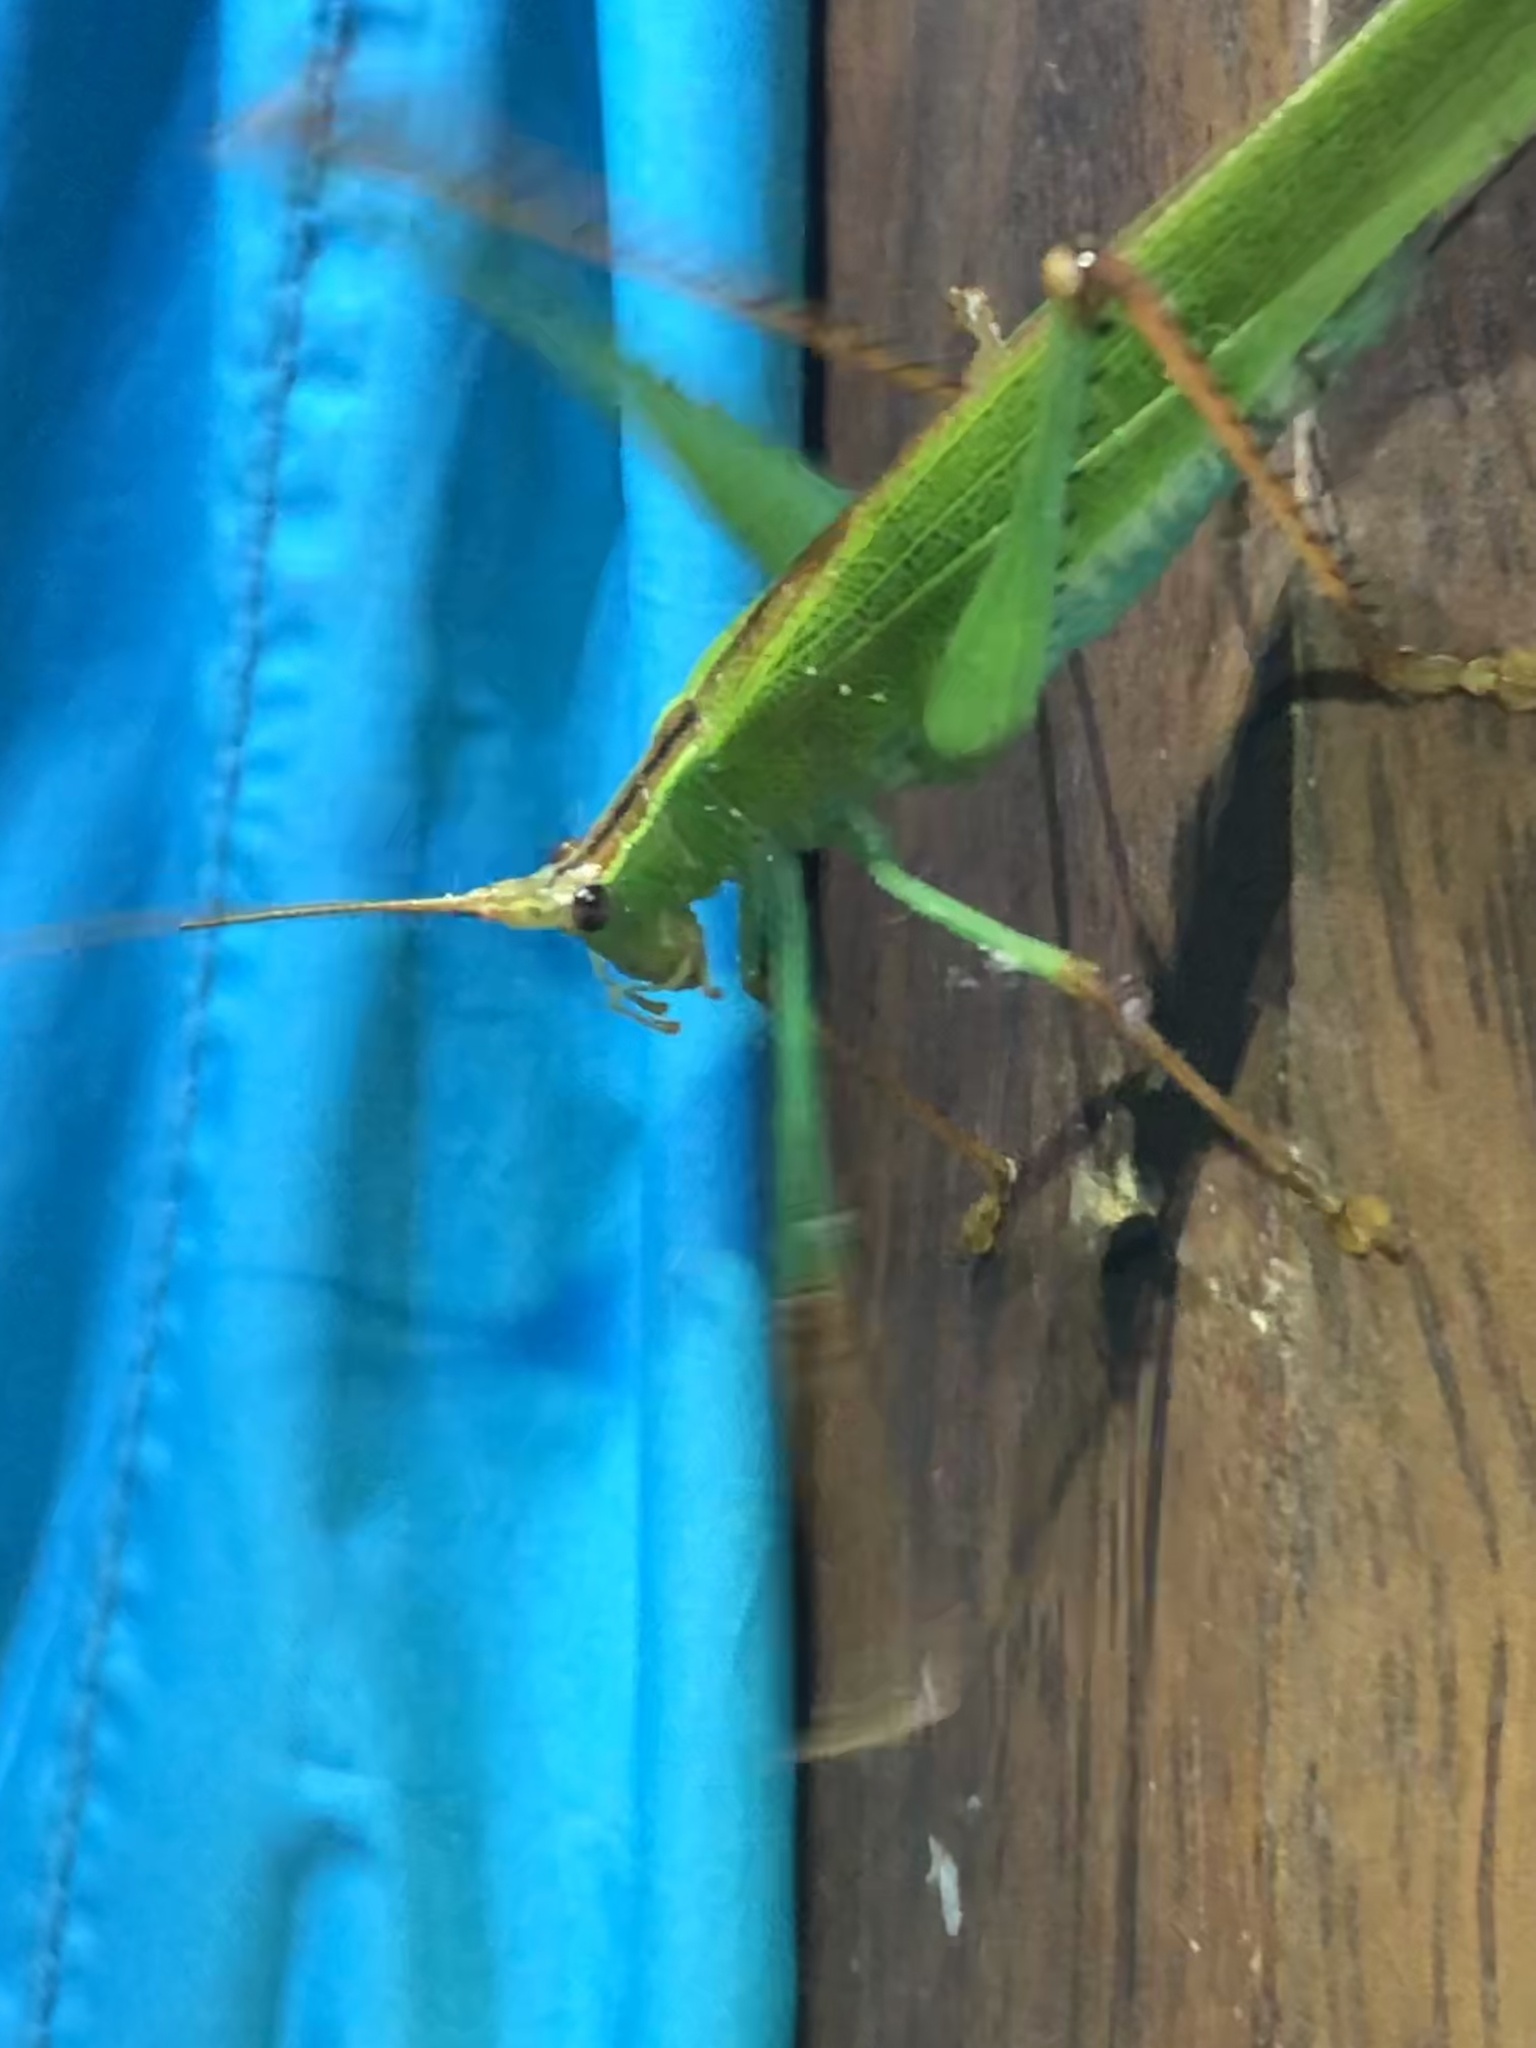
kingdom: Animalia
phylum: Arthropoda
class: Insecta
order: Orthoptera
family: Tettigoniidae
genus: Jimenezia
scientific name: Jimenezia elegans
